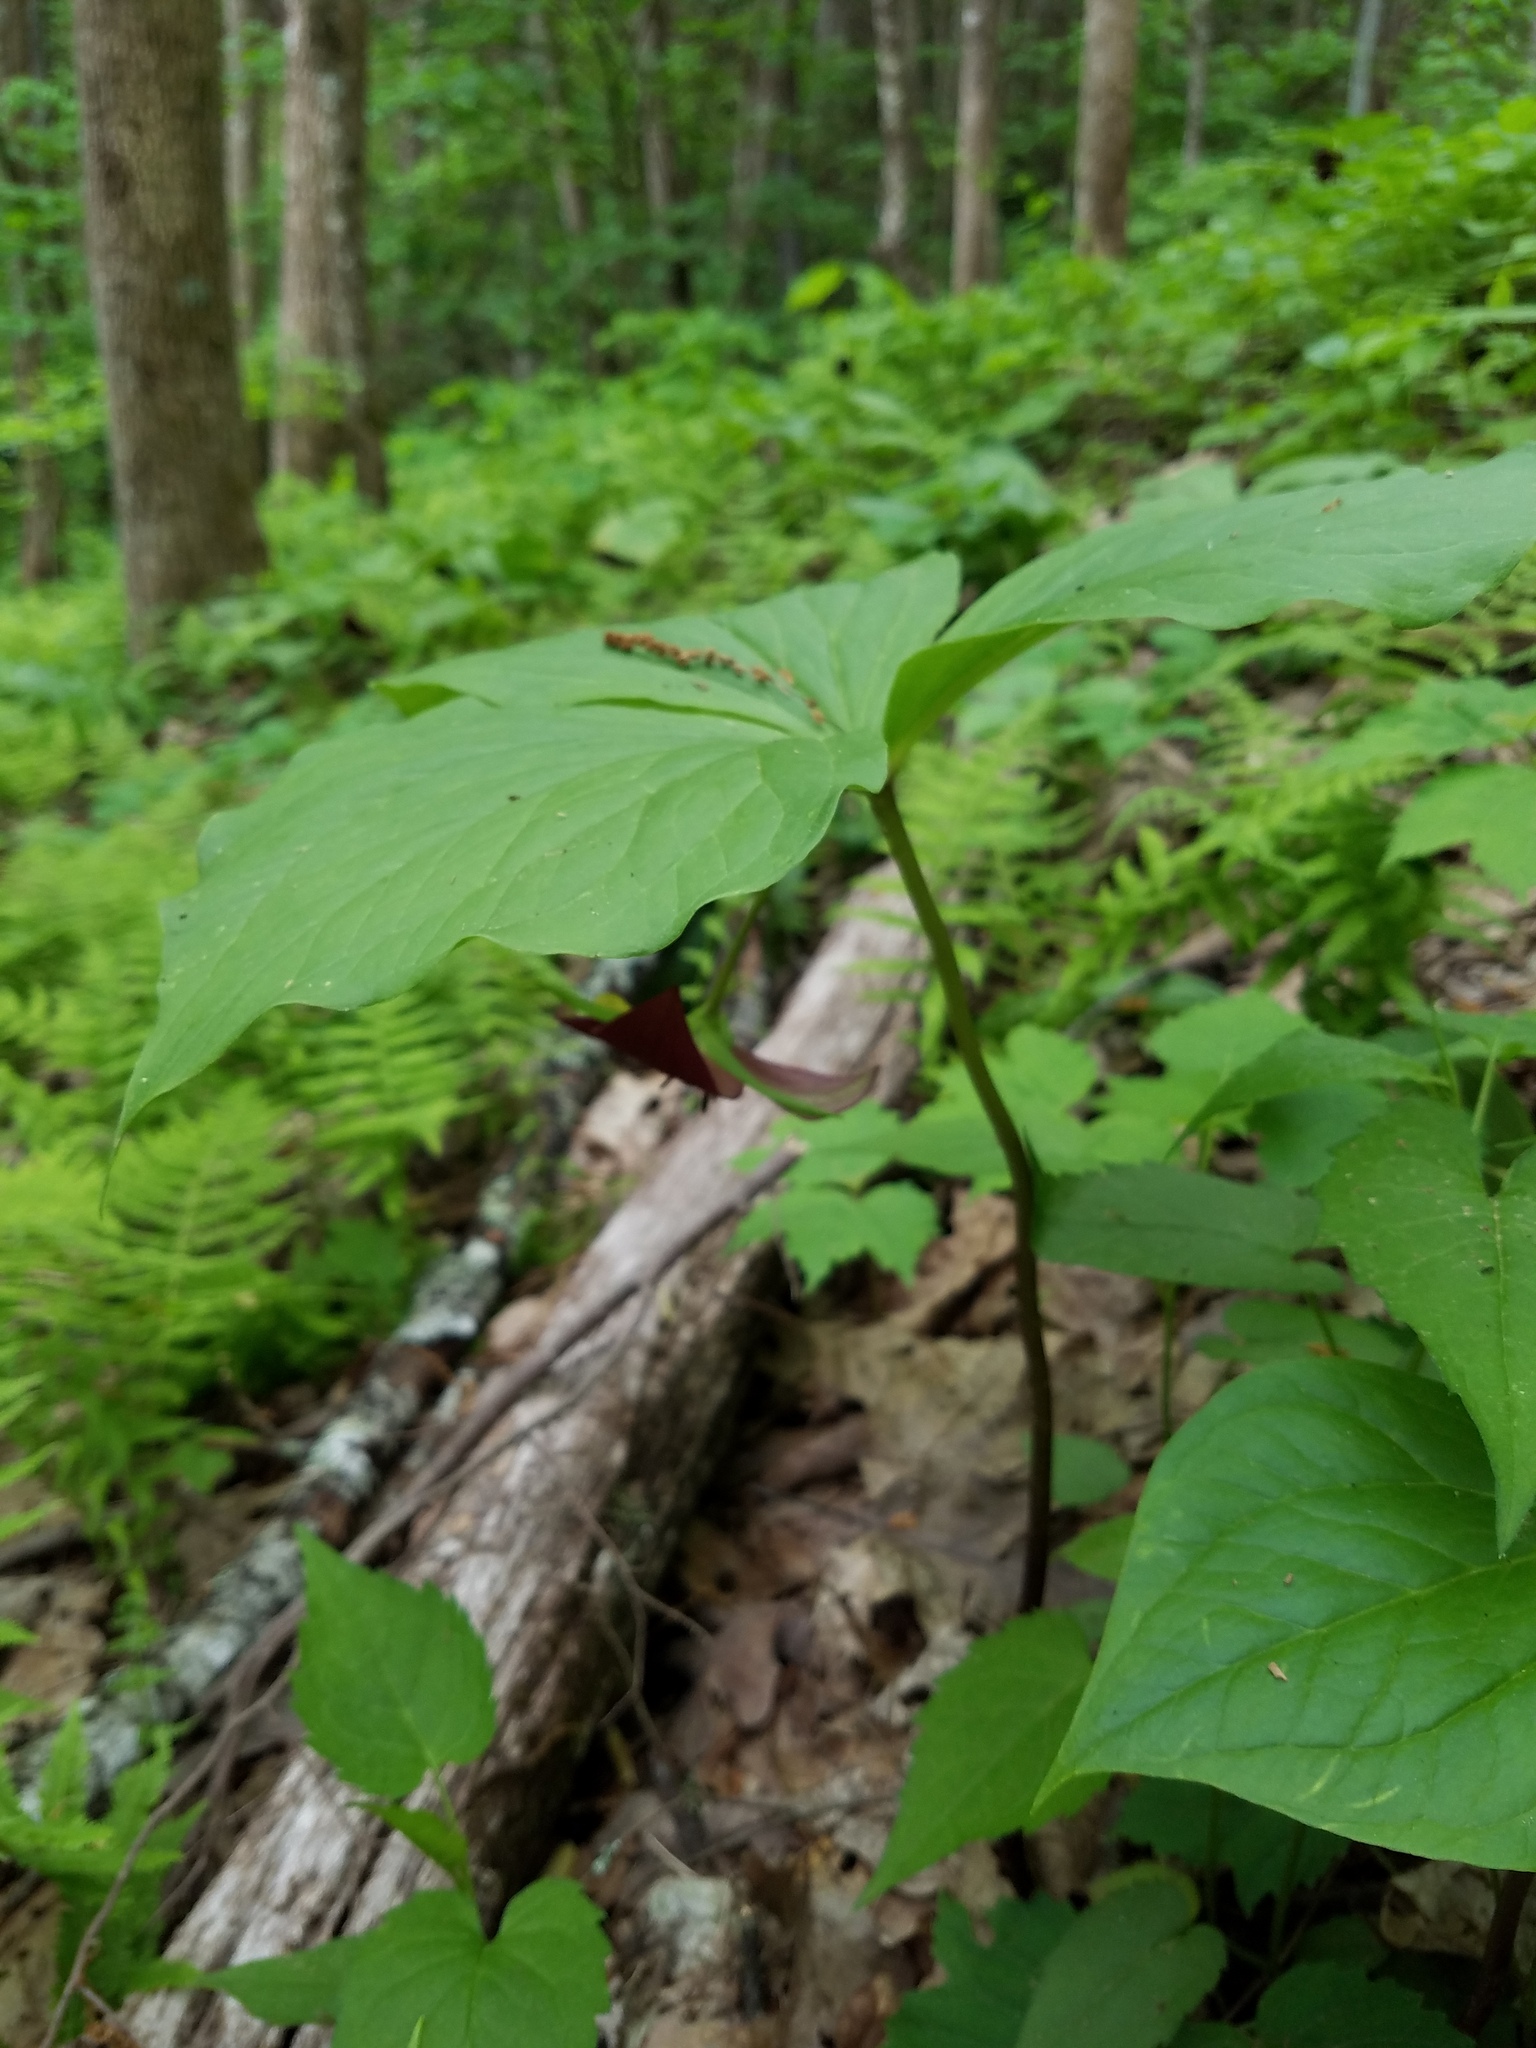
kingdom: Plantae
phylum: Tracheophyta
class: Liliopsida
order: Liliales
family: Melanthiaceae
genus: Trillium
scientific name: Trillium vaseyi
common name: Sweet trillium
